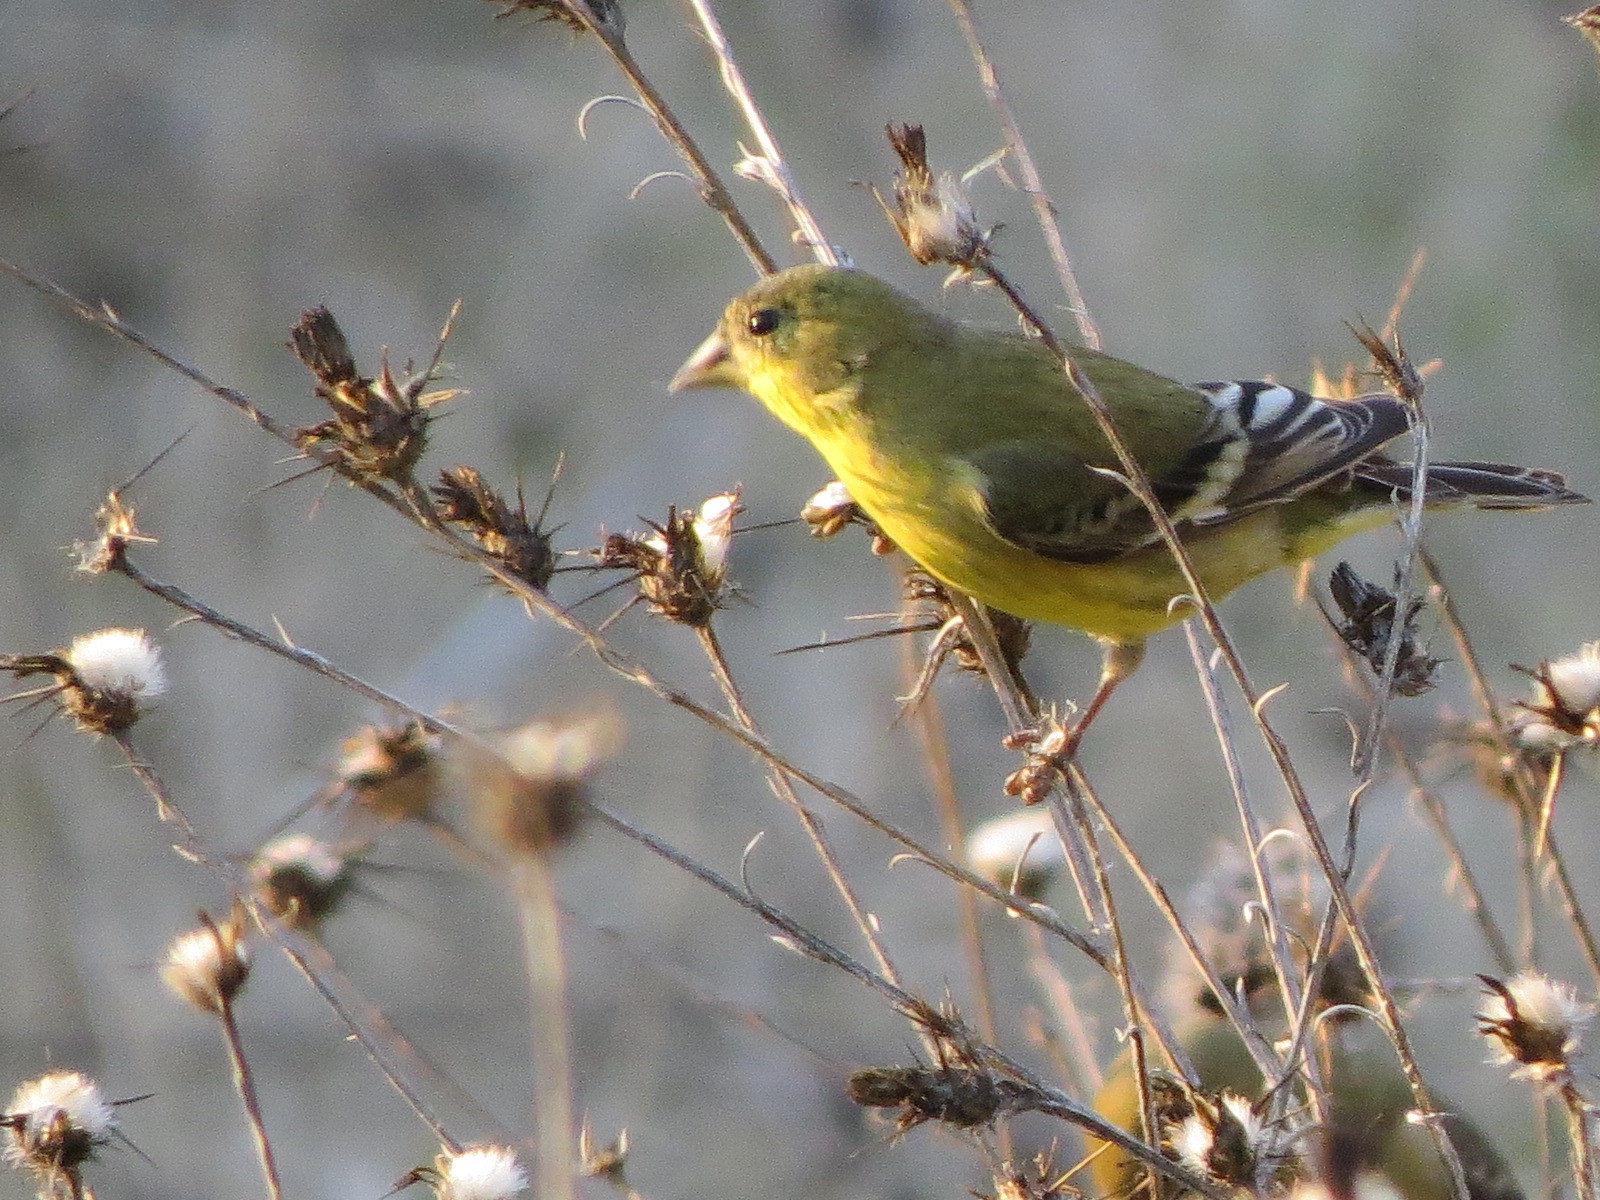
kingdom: Animalia
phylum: Chordata
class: Aves
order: Passeriformes
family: Fringillidae
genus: Spinus
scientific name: Spinus psaltria
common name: Lesser goldfinch
